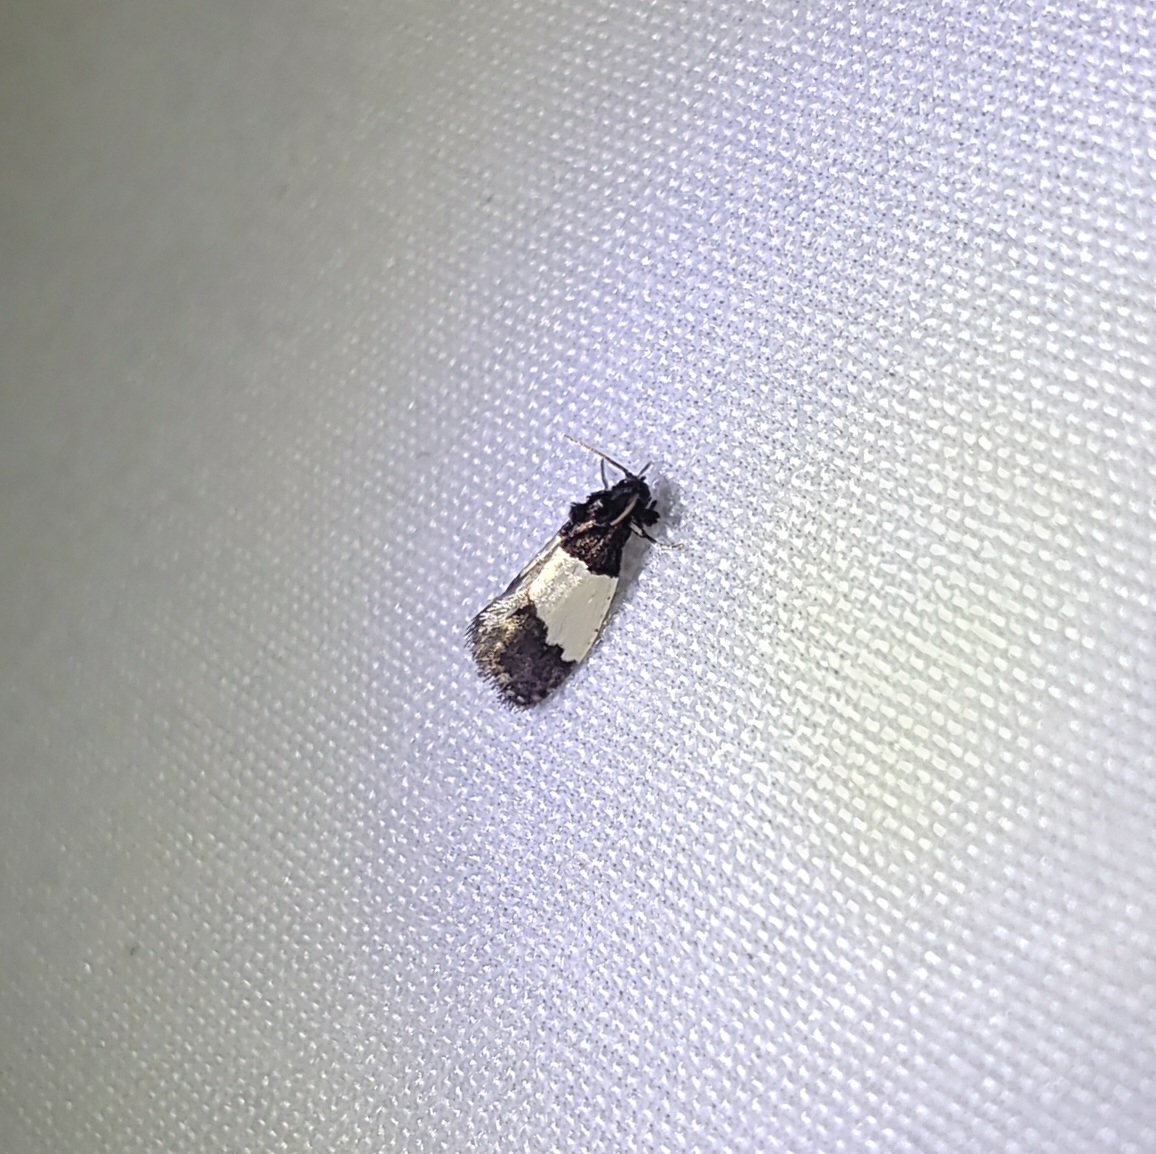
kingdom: Animalia
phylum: Arthropoda
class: Insecta
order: Lepidoptera
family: Psychidae
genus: Kearfottia
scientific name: Kearfottia albifasciella
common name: White-patched kearfottia
